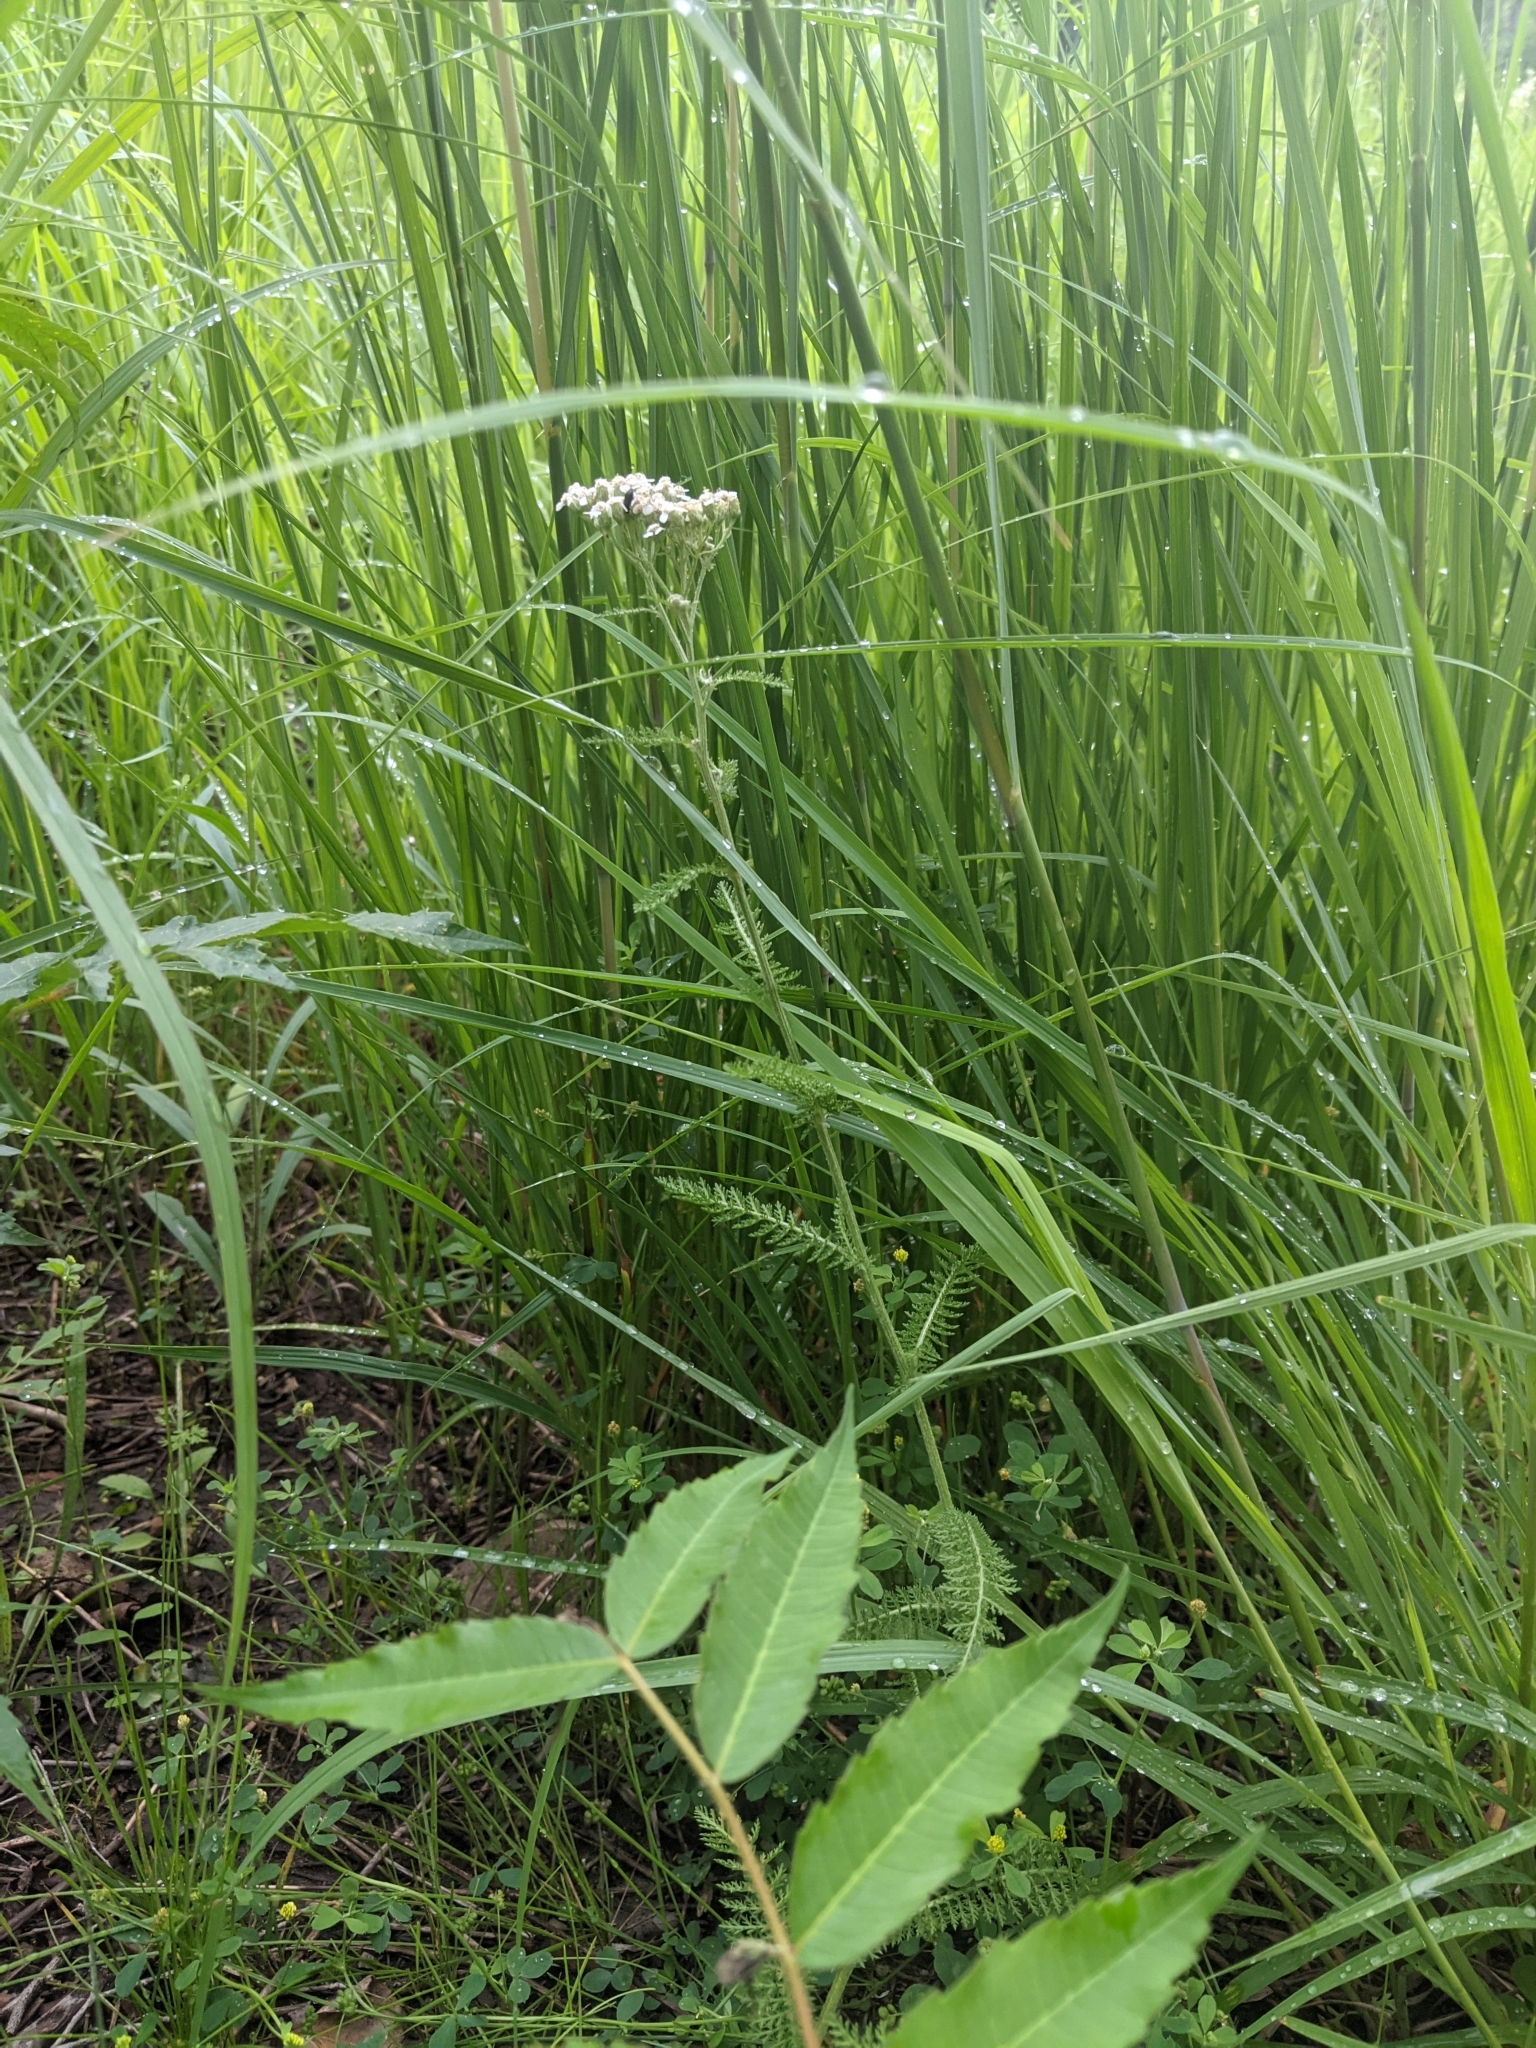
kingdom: Plantae
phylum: Tracheophyta
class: Magnoliopsida
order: Asterales
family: Asteraceae
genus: Achillea
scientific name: Achillea millefolium
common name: Yarrow
